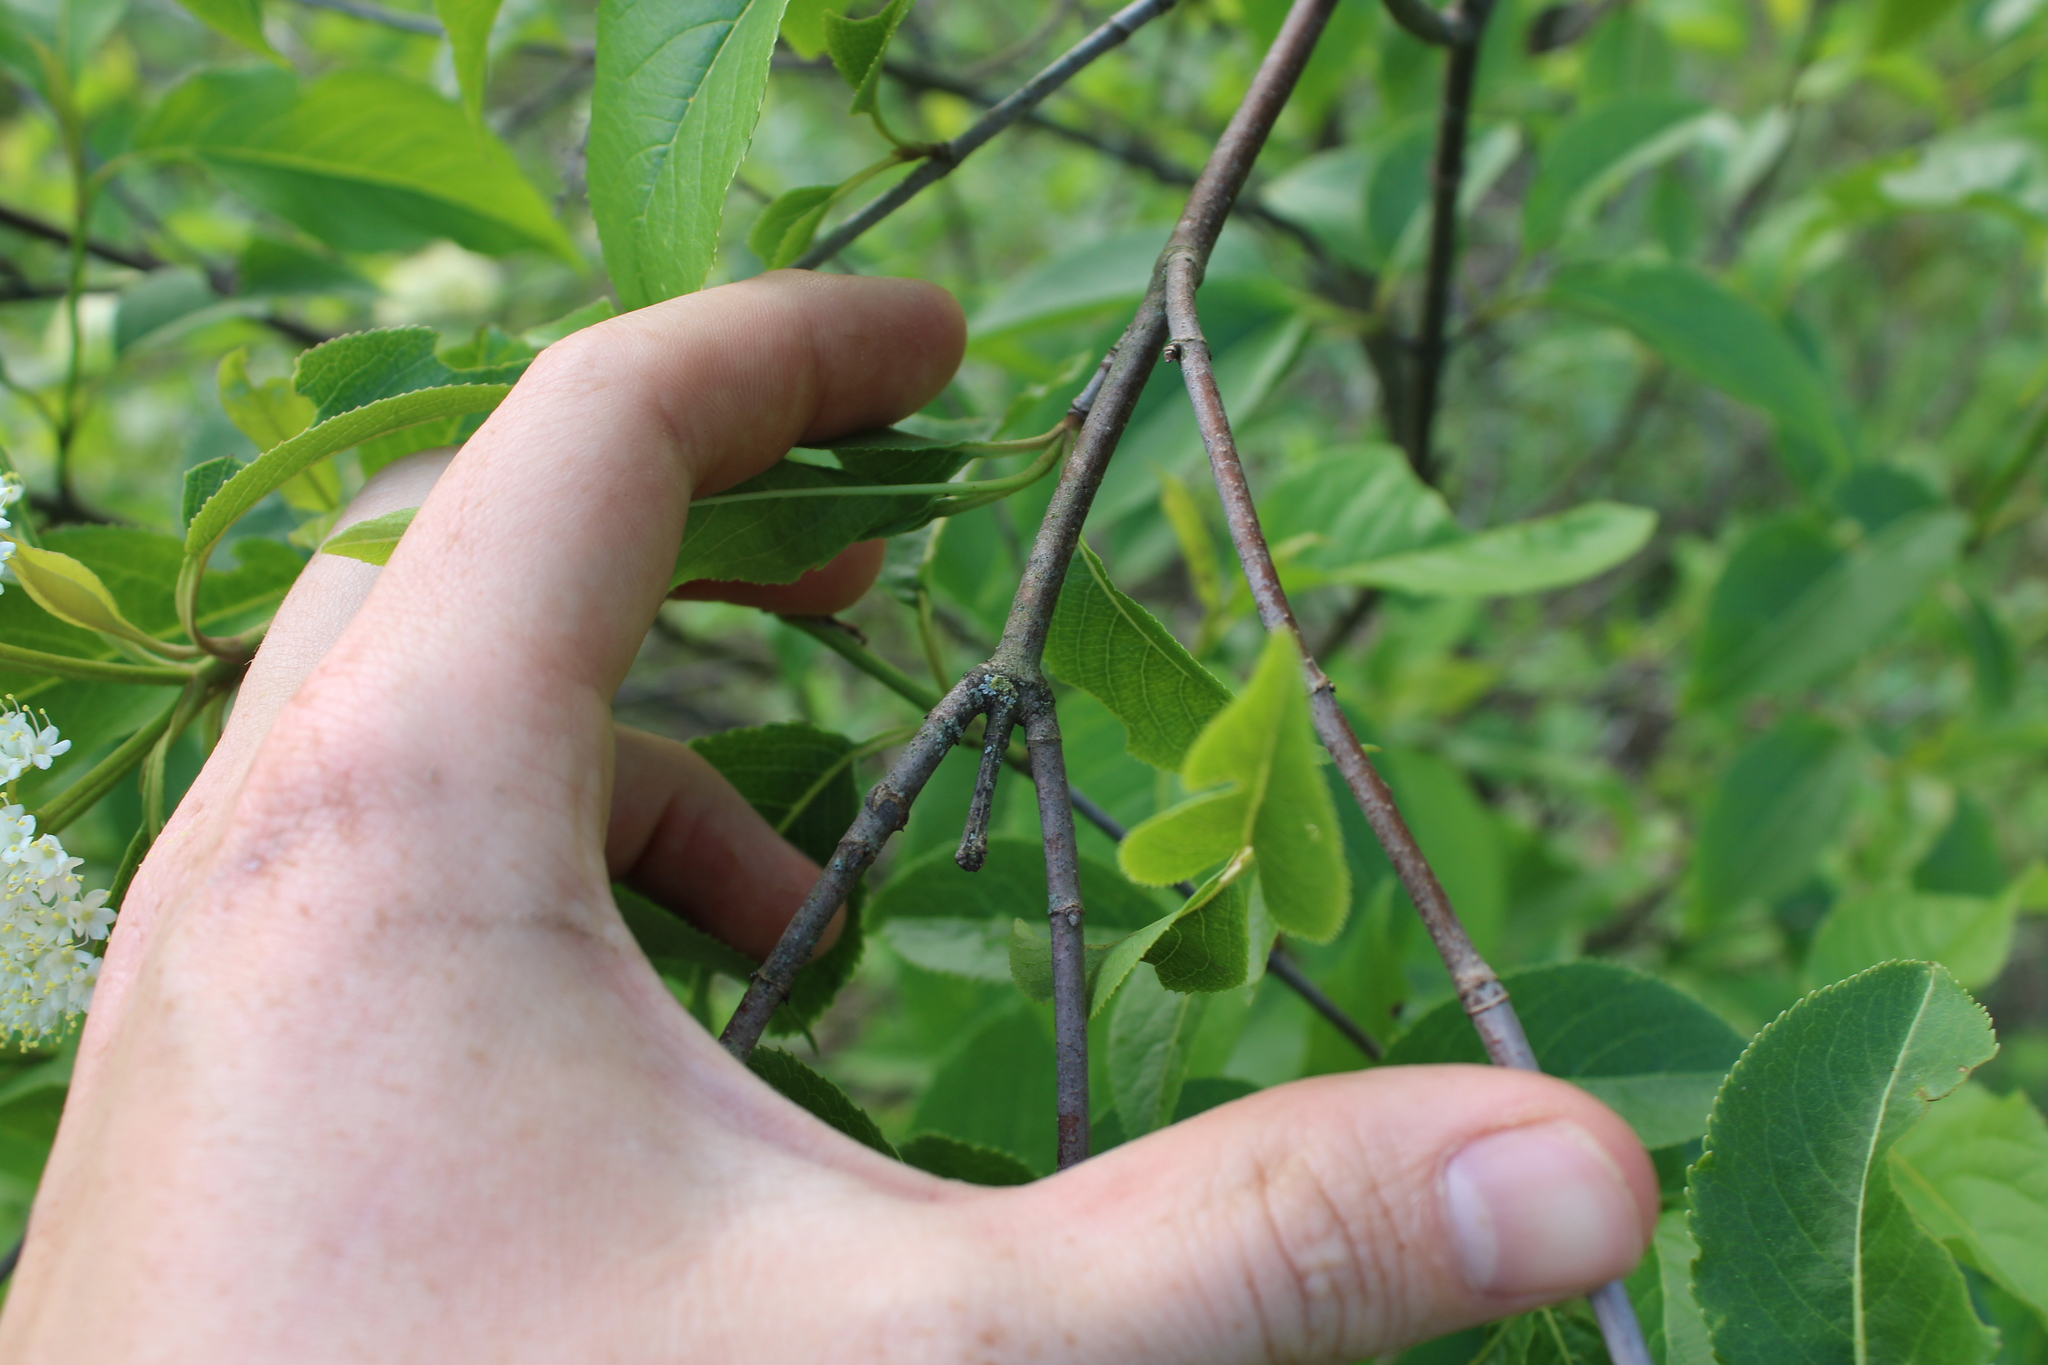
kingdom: Plantae
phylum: Tracheophyta
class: Magnoliopsida
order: Dipsacales
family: Viburnaceae
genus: Viburnum
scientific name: Viburnum lentago
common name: Black haw
